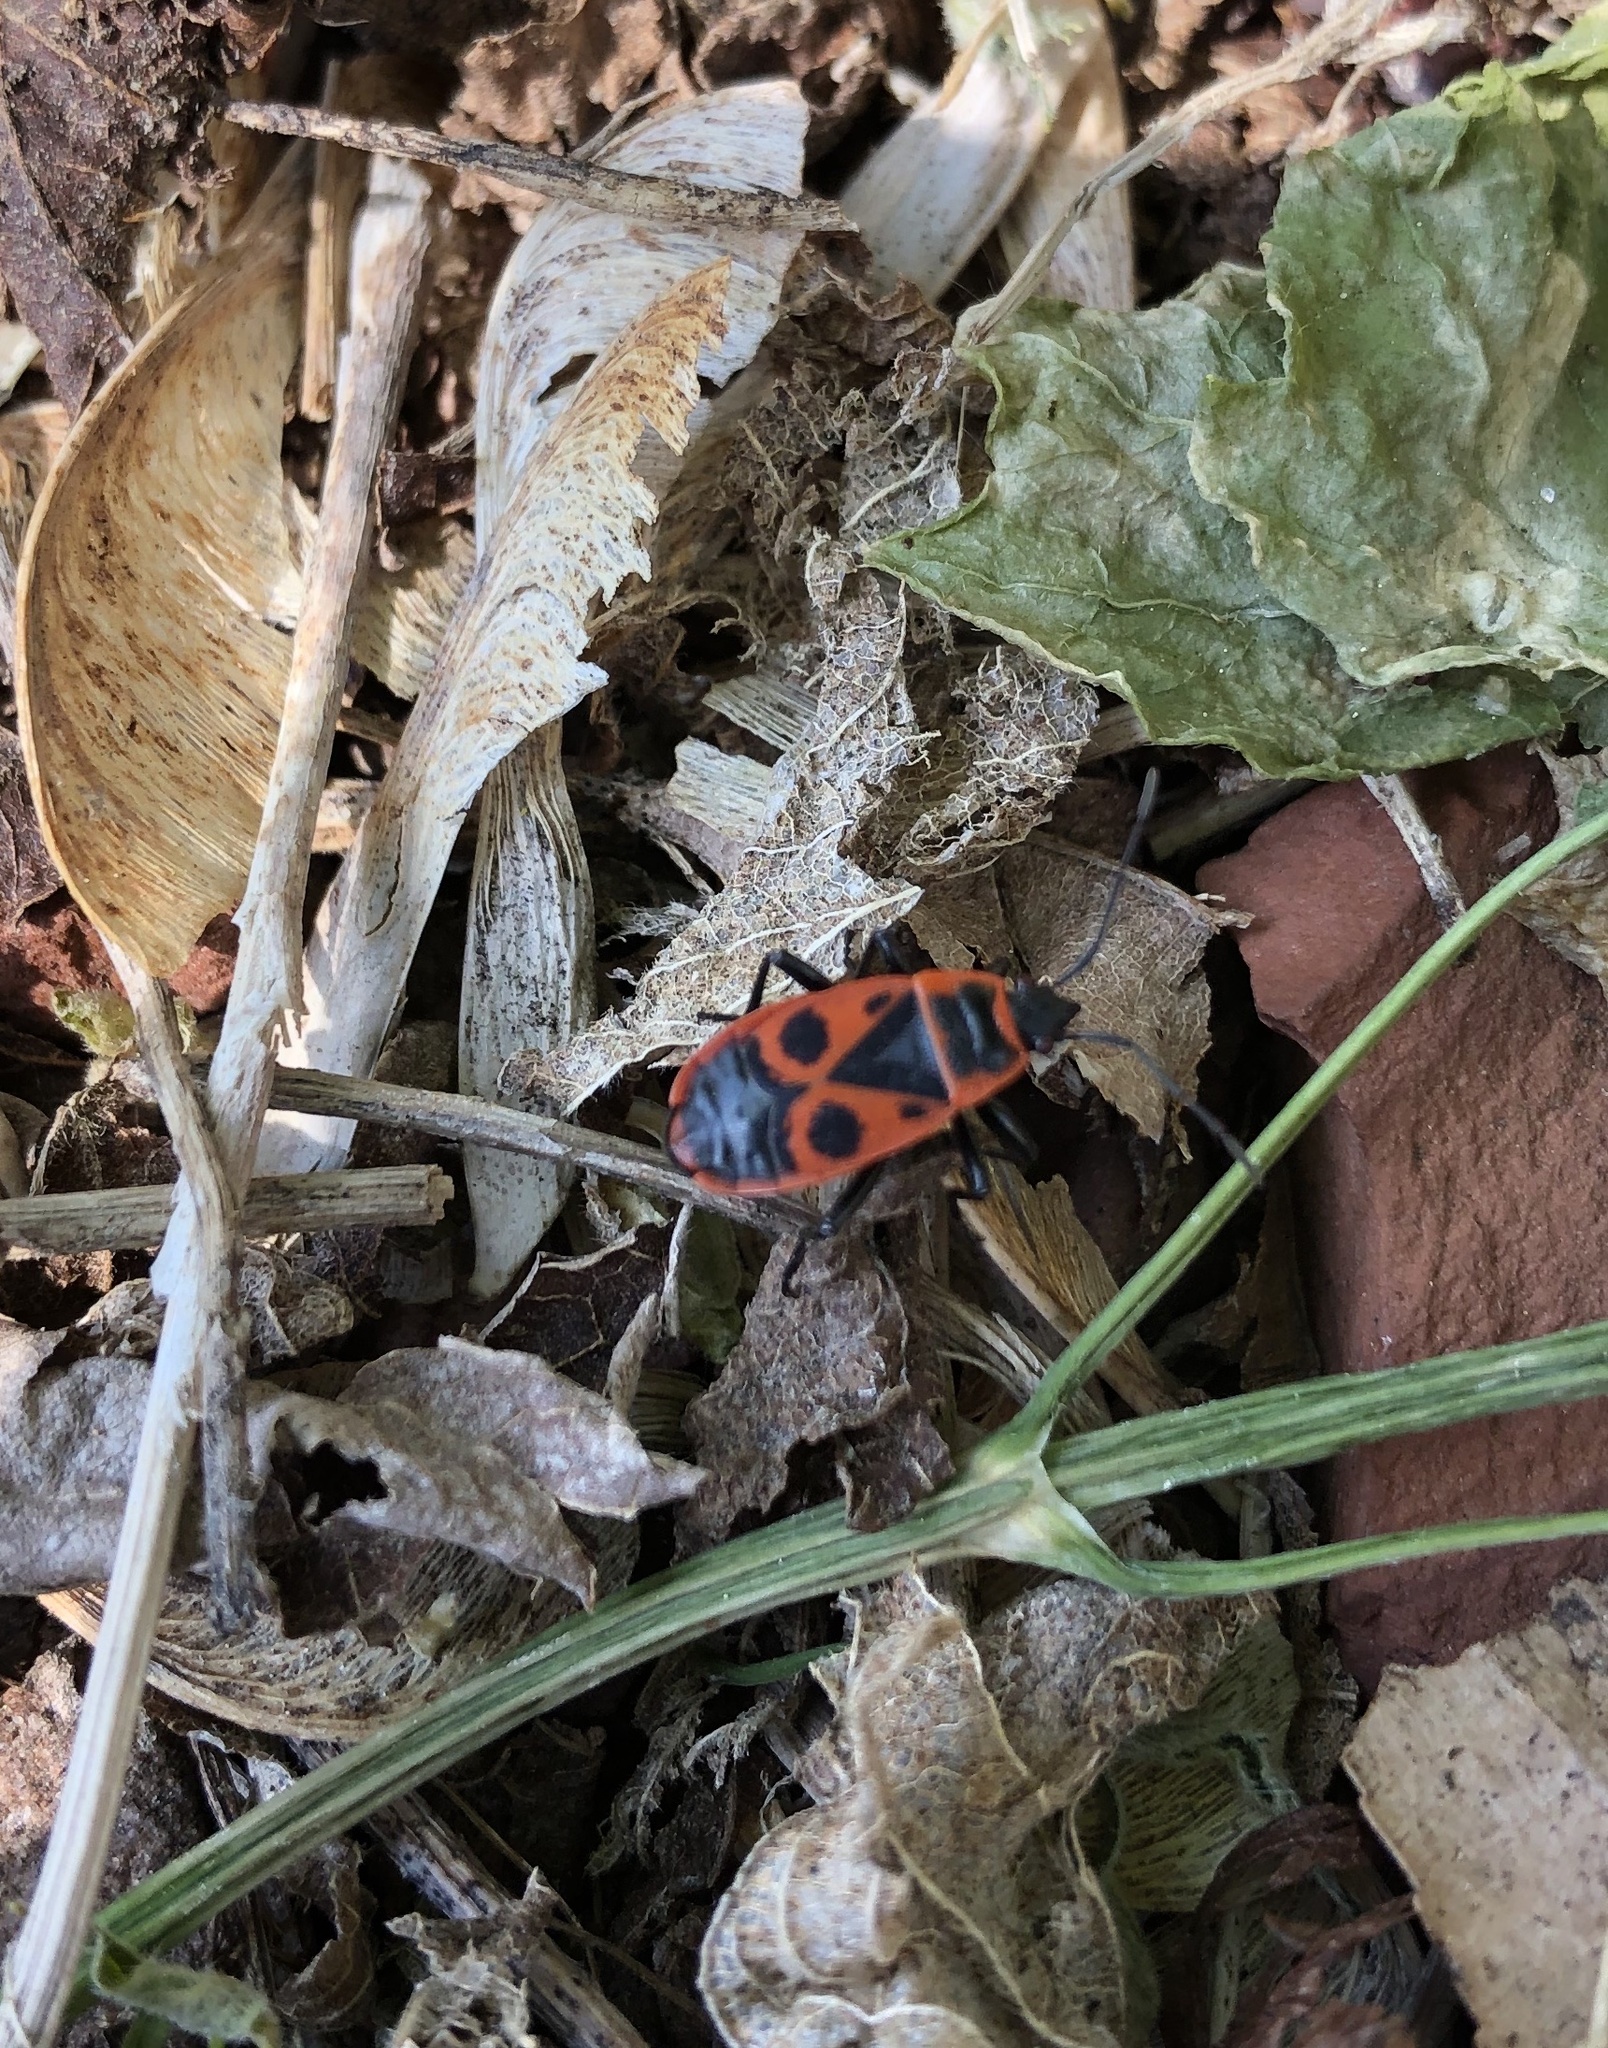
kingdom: Animalia
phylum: Arthropoda
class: Insecta
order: Hemiptera
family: Pyrrhocoridae
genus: Pyrrhocoris
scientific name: Pyrrhocoris apterus
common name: Firebug
